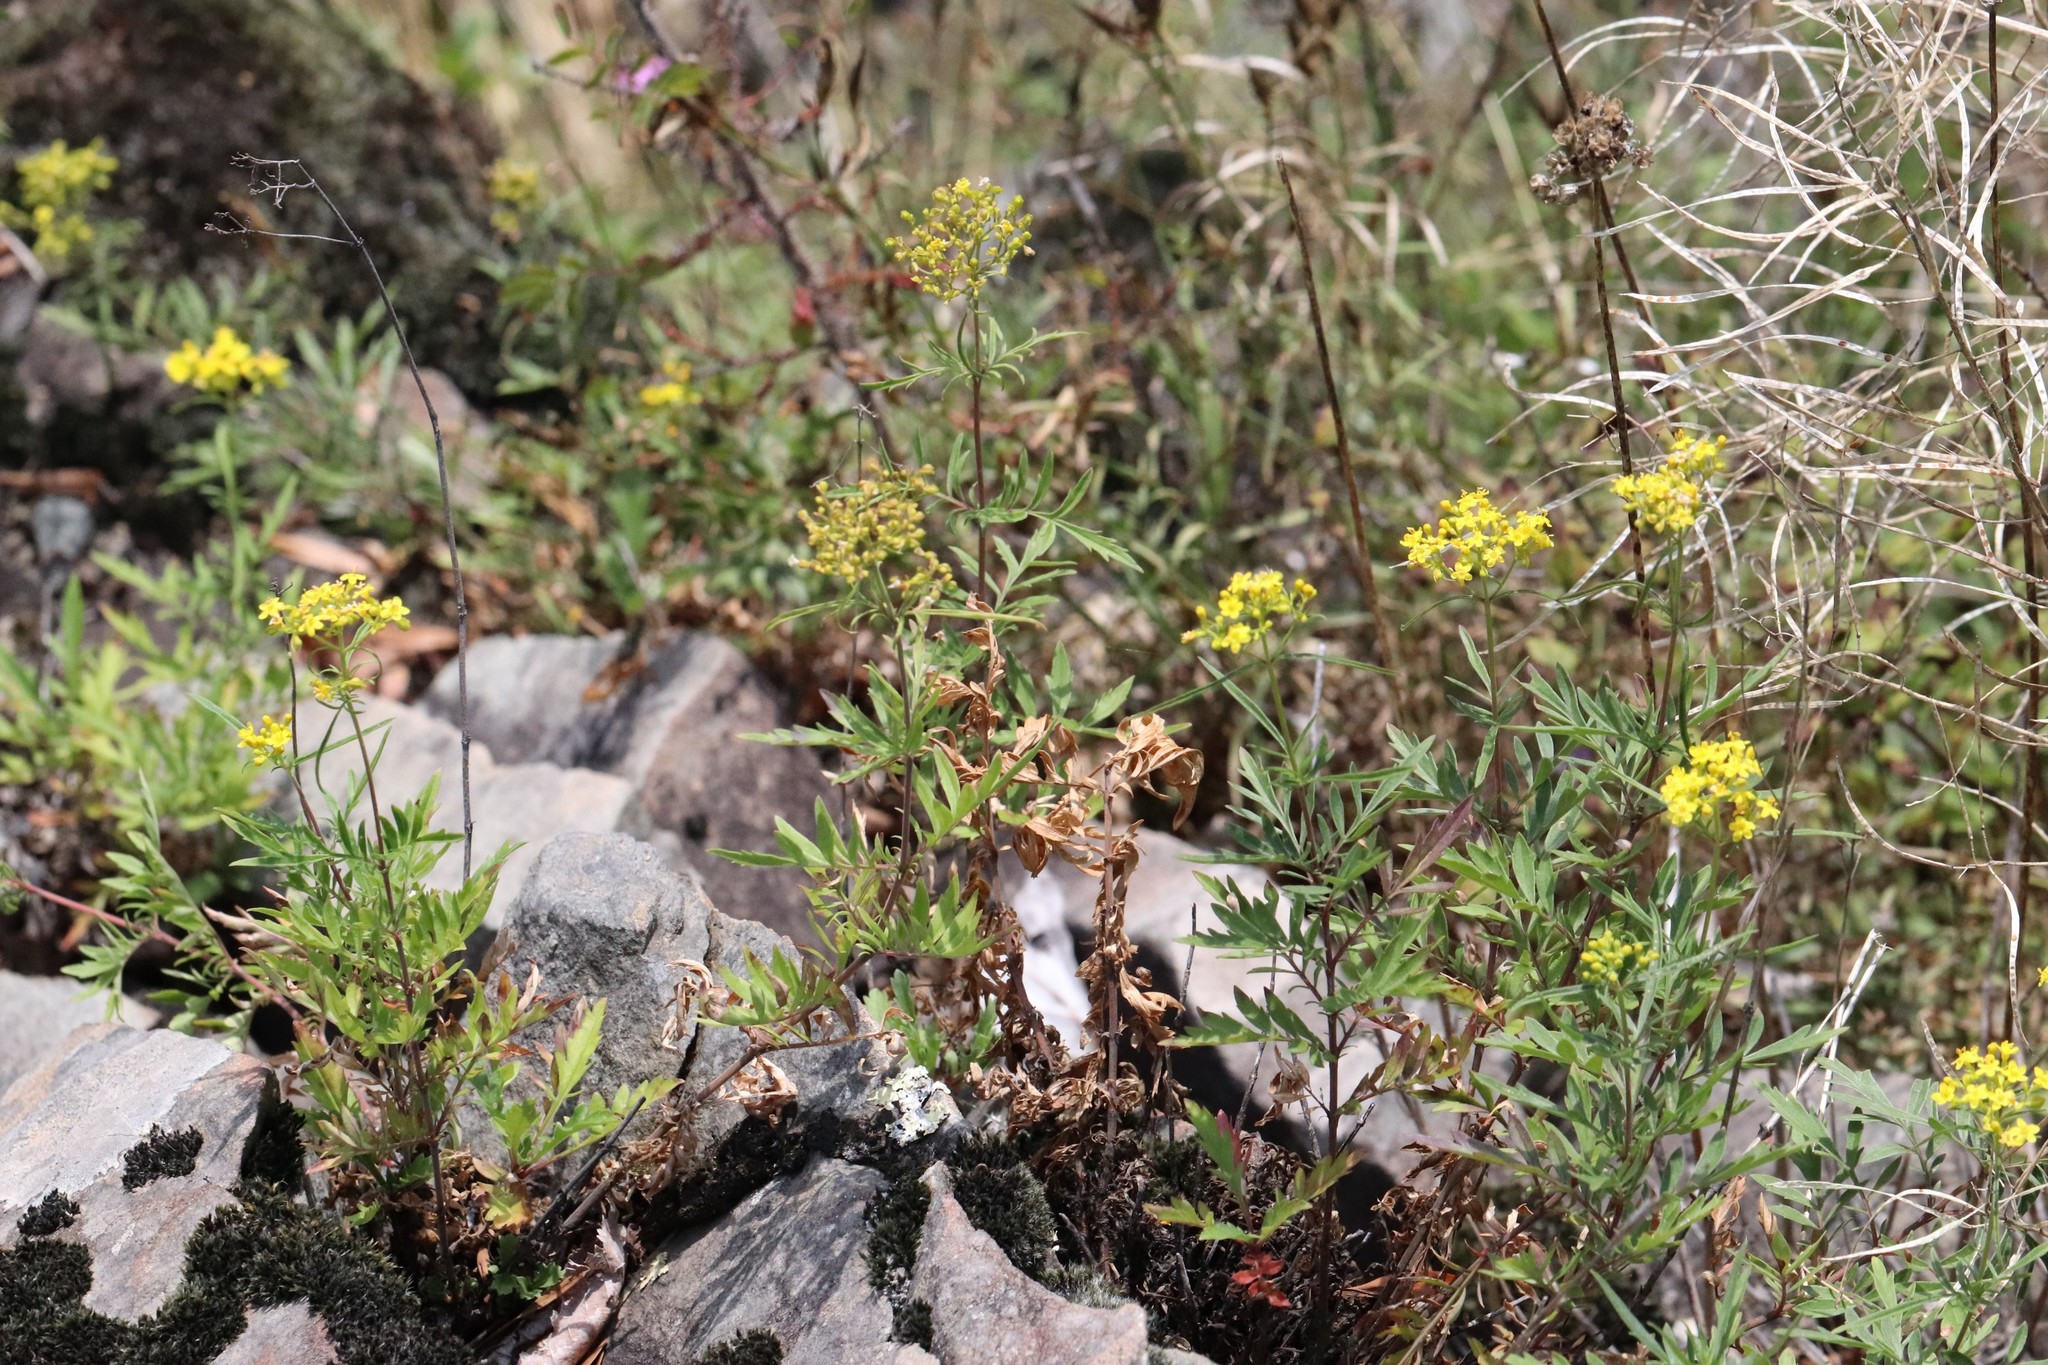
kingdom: Plantae
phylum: Tracheophyta
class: Magnoliopsida
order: Dipsacales
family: Caprifoliaceae
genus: Patrinia
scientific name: Patrinia rupestris
